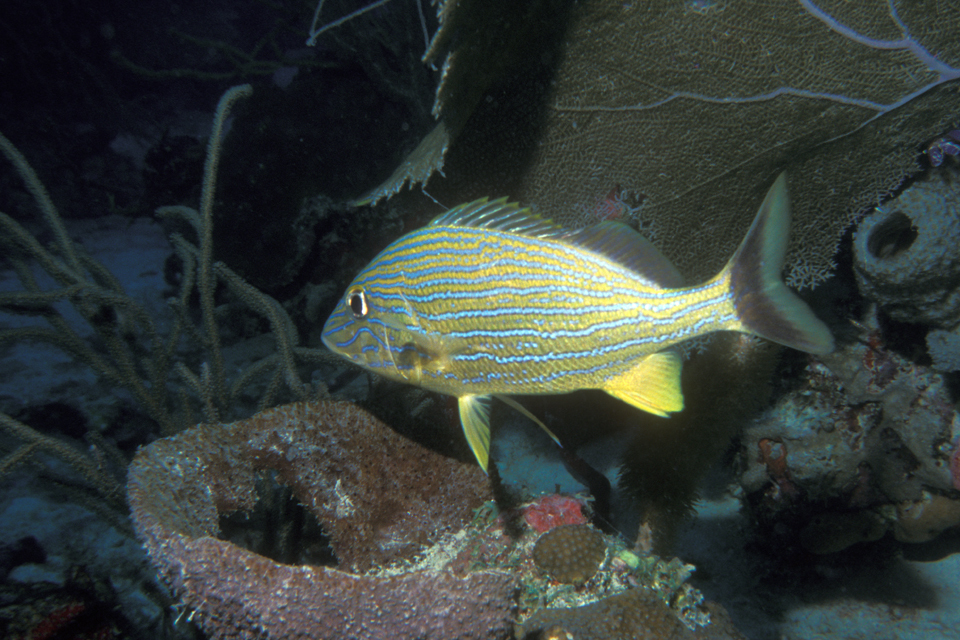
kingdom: Animalia
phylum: Chordata
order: Perciformes
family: Haemulidae
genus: Haemulon
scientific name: Haemulon sciurus
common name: Bluestriped grunt
